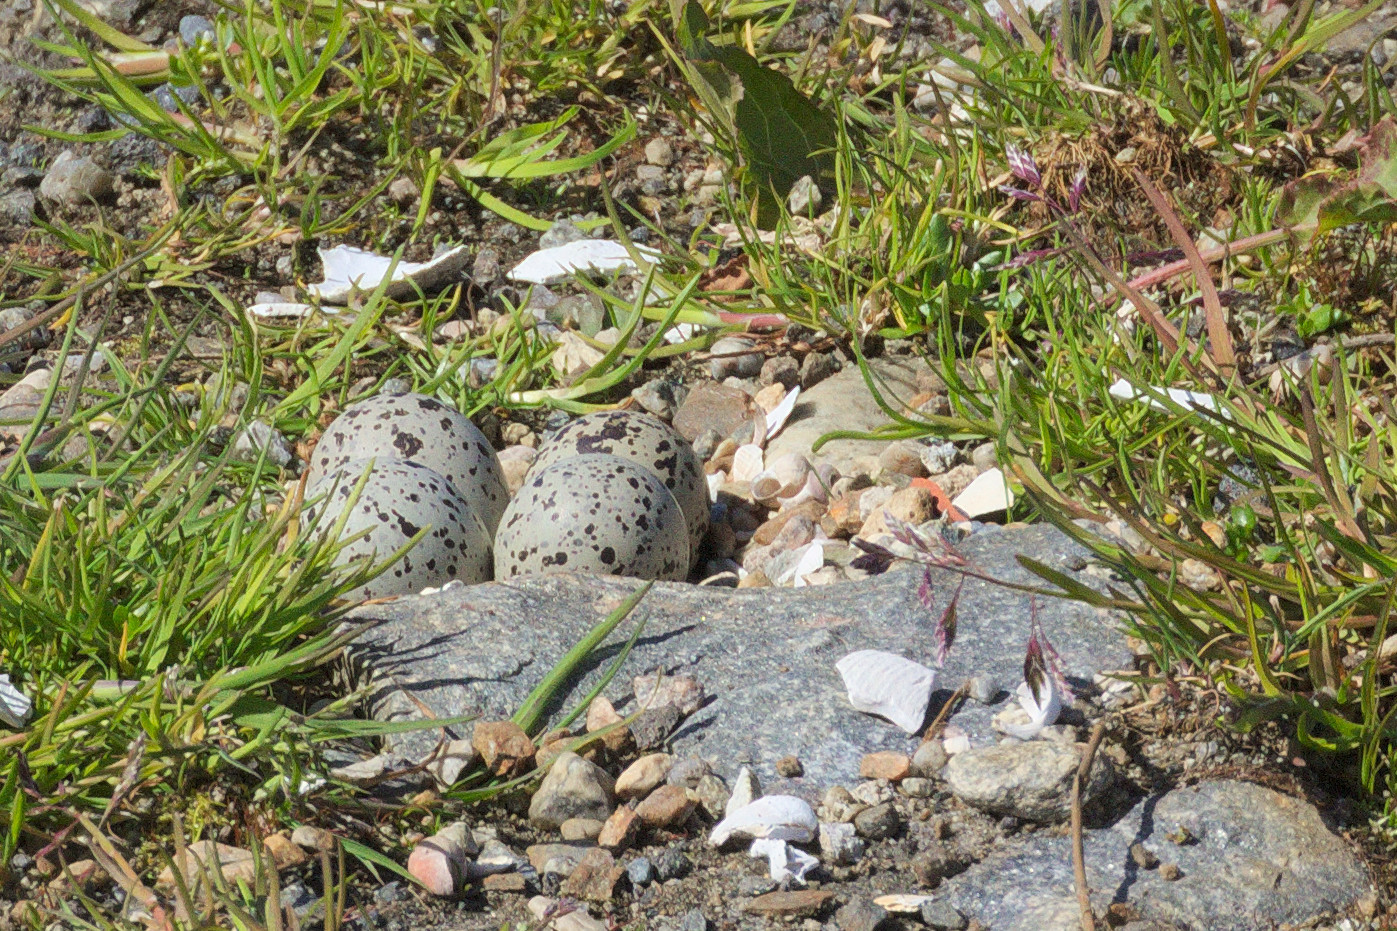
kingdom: Animalia
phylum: Chordata
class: Aves
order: Charadriiformes
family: Charadriidae
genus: Charadrius
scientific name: Charadrius hiaticula
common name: Common ringed plover
